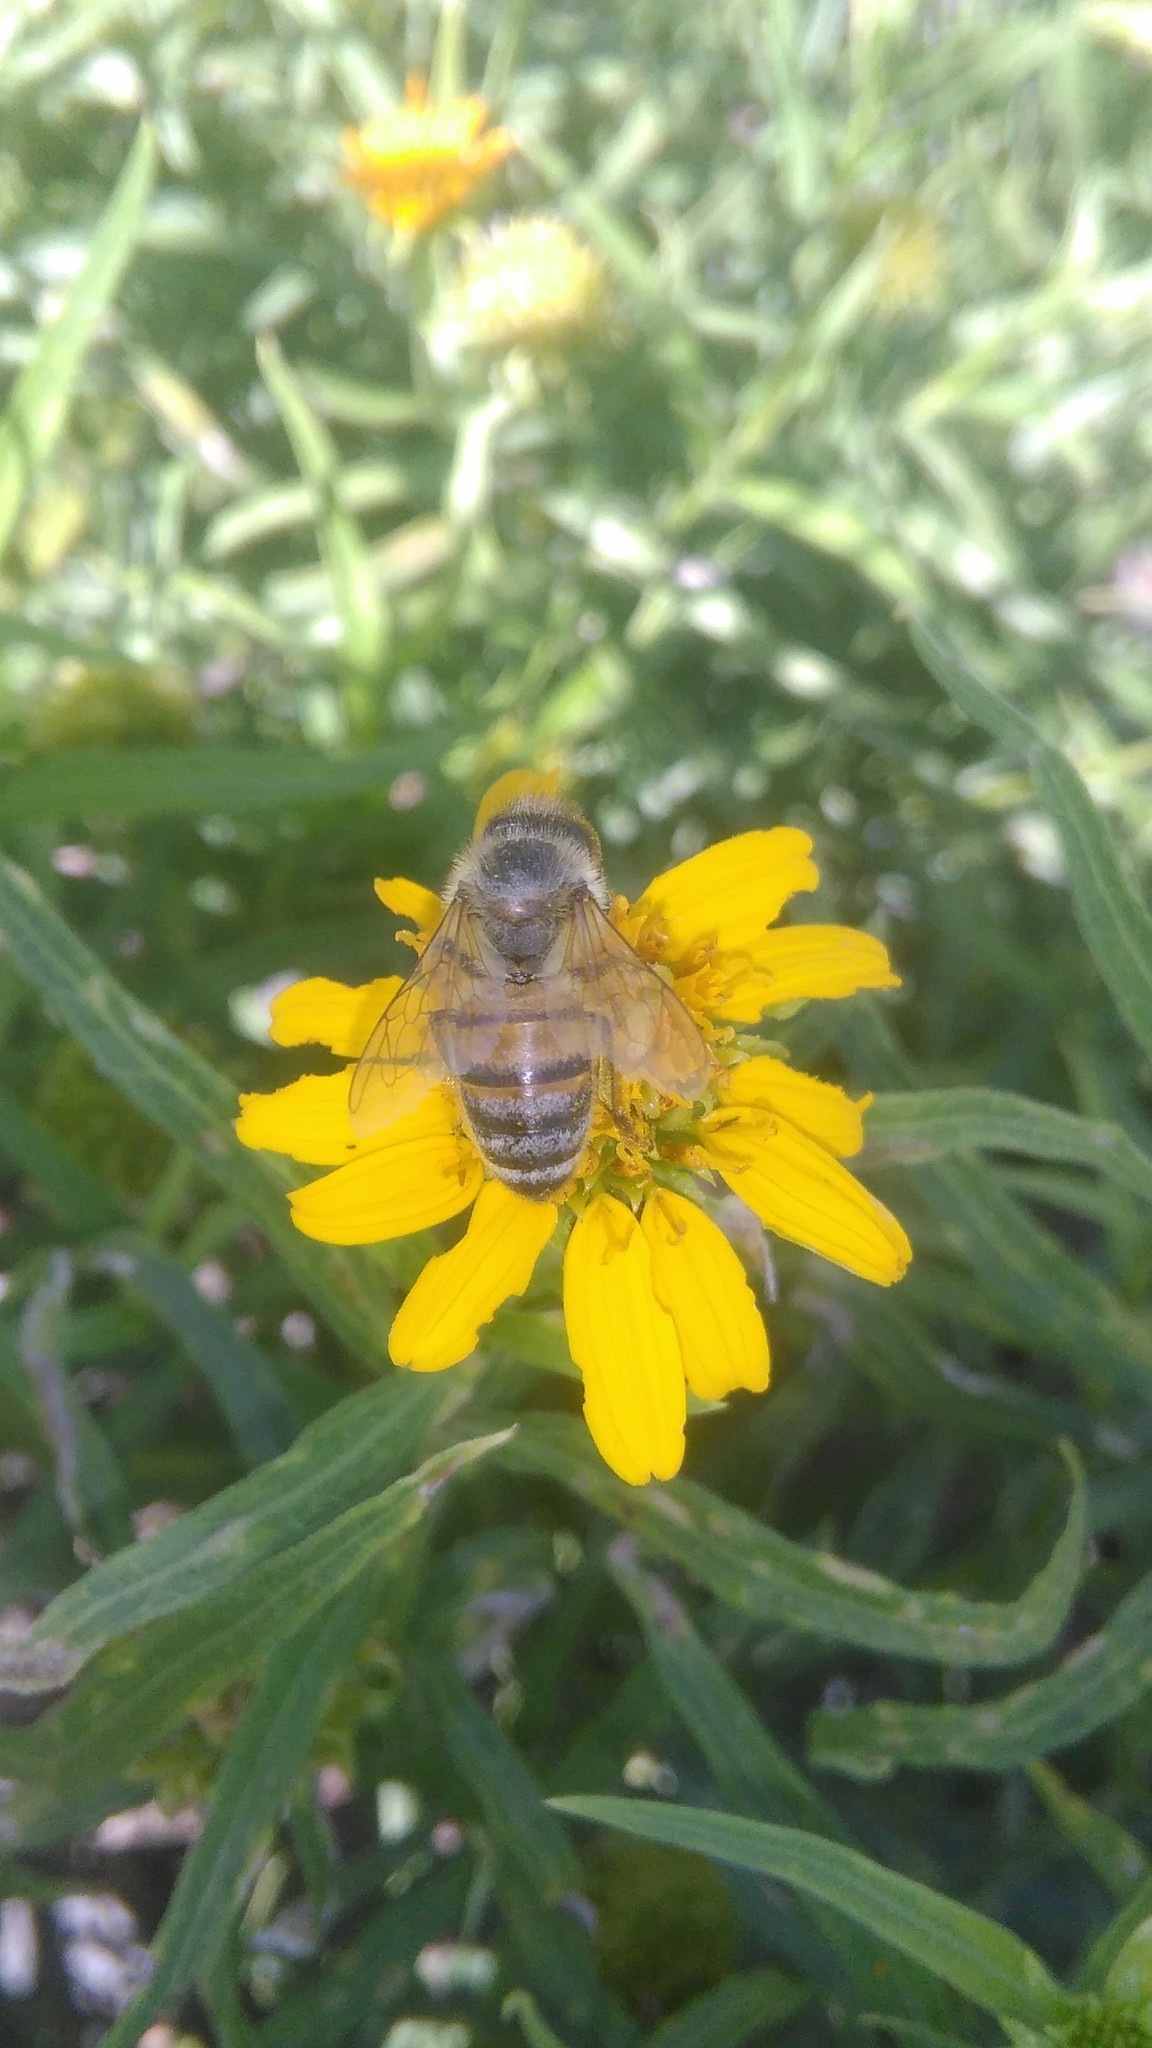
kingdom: Animalia
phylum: Arthropoda
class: Insecta
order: Hymenoptera
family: Apidae
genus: Apis
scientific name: Apis mellifera
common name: Honey bee
